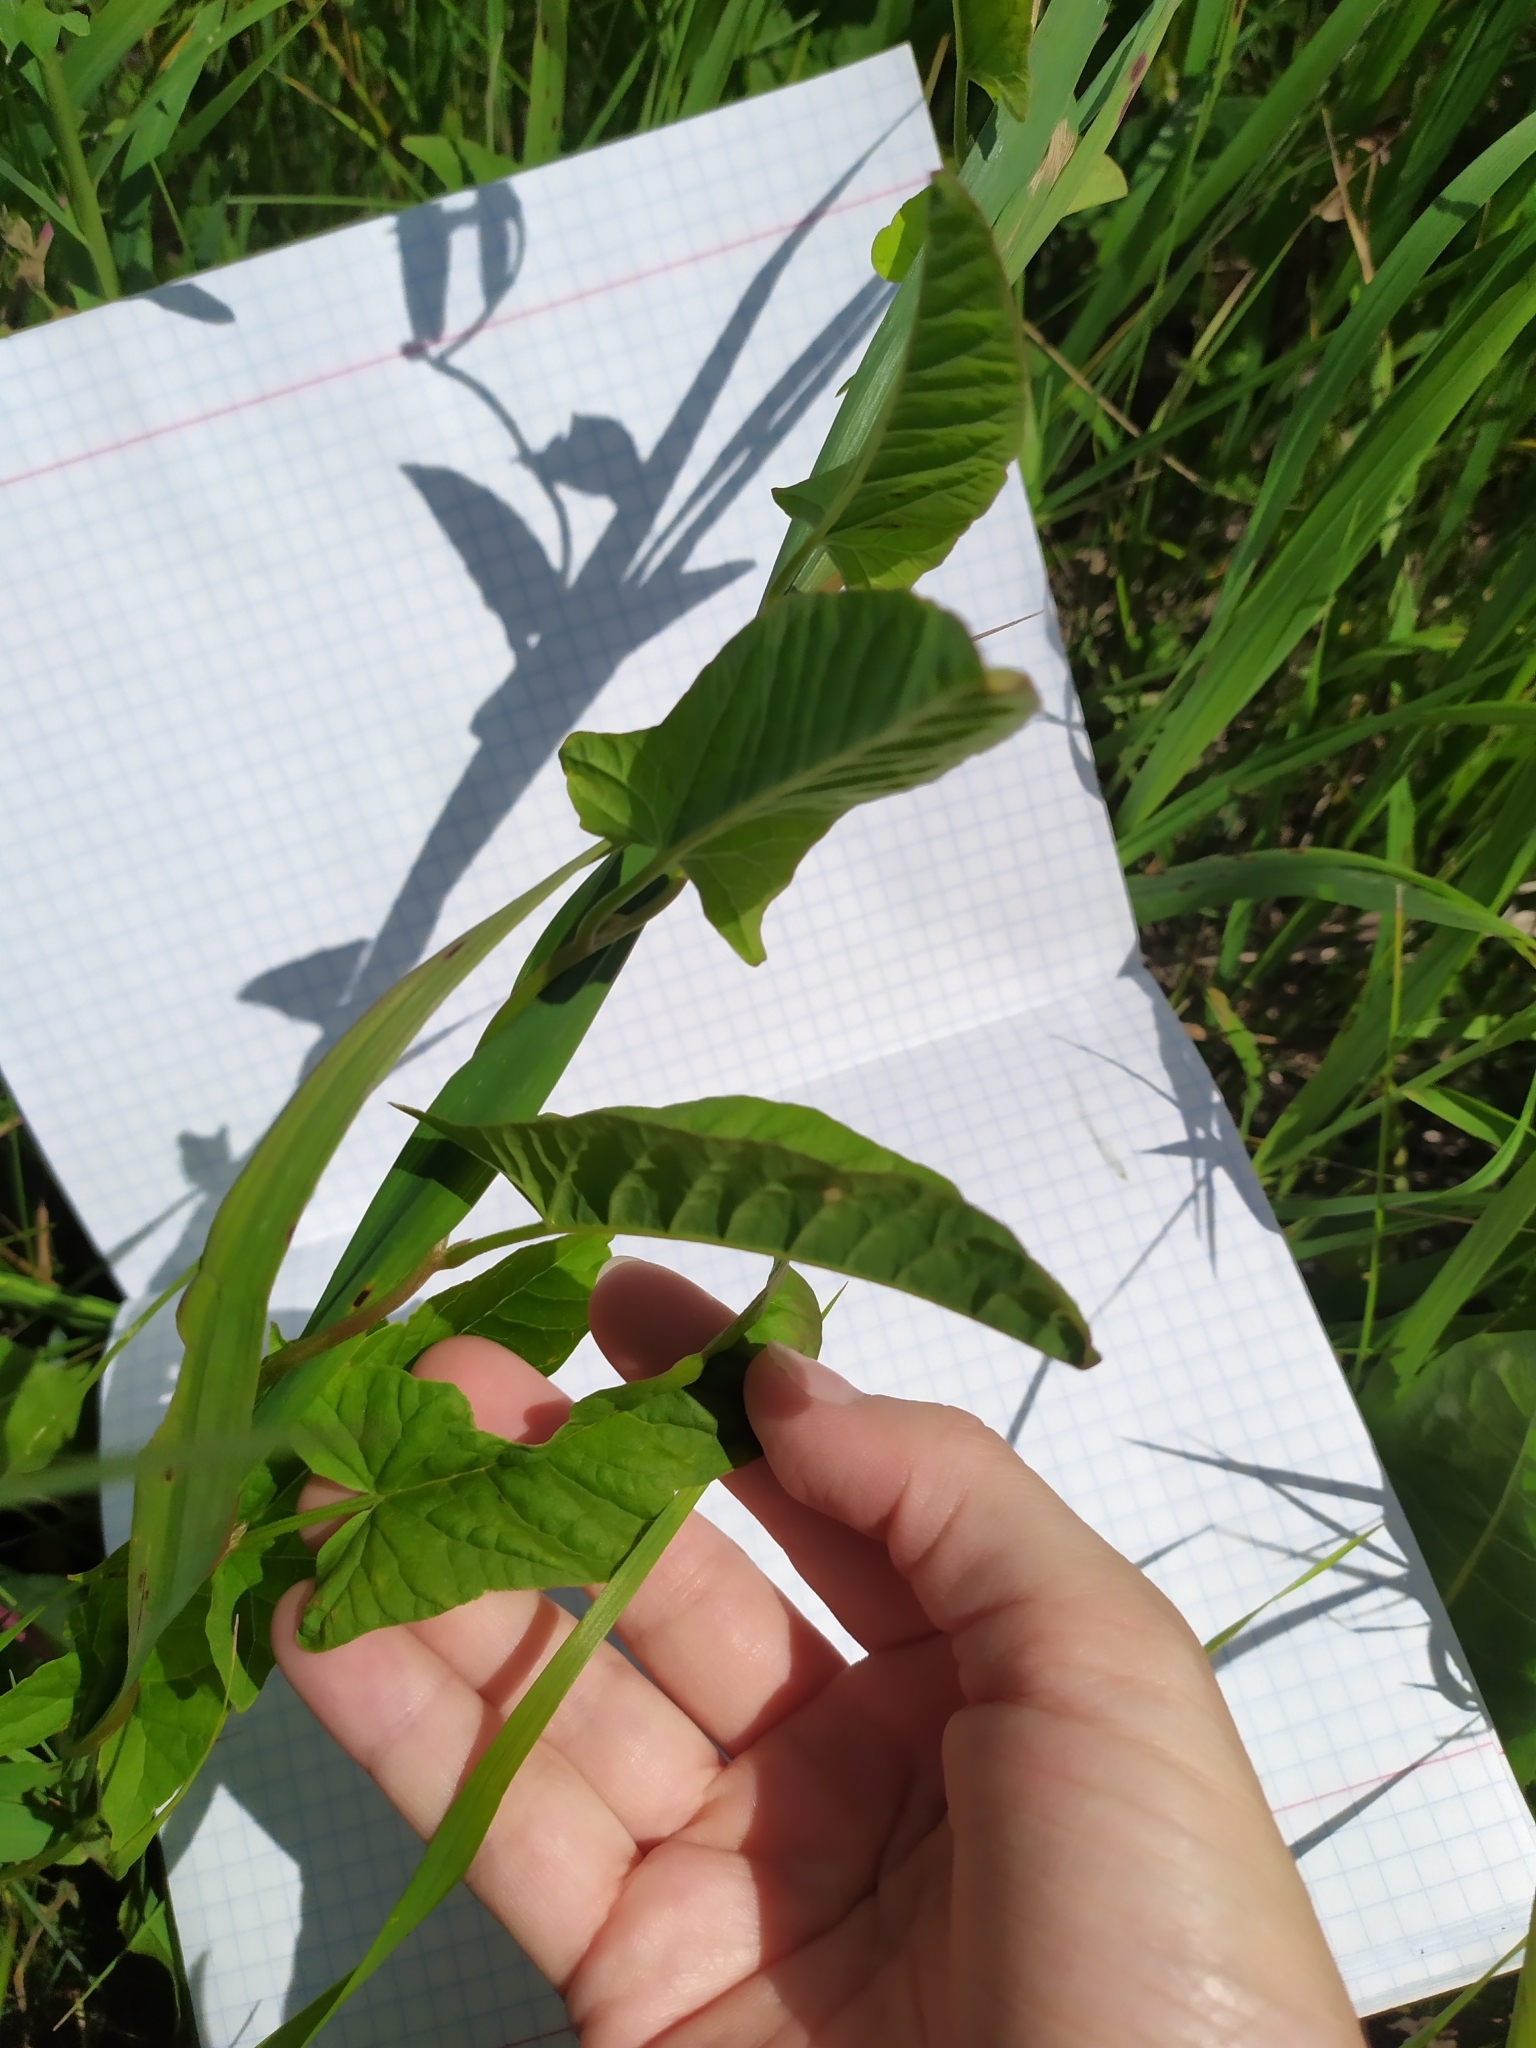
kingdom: Plantae
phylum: Tracheophyta
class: Magnoliopsida
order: Solanales
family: Convolvulaceae
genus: Convolvulus
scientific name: Convolvulus arvensis
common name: Field bindweed
